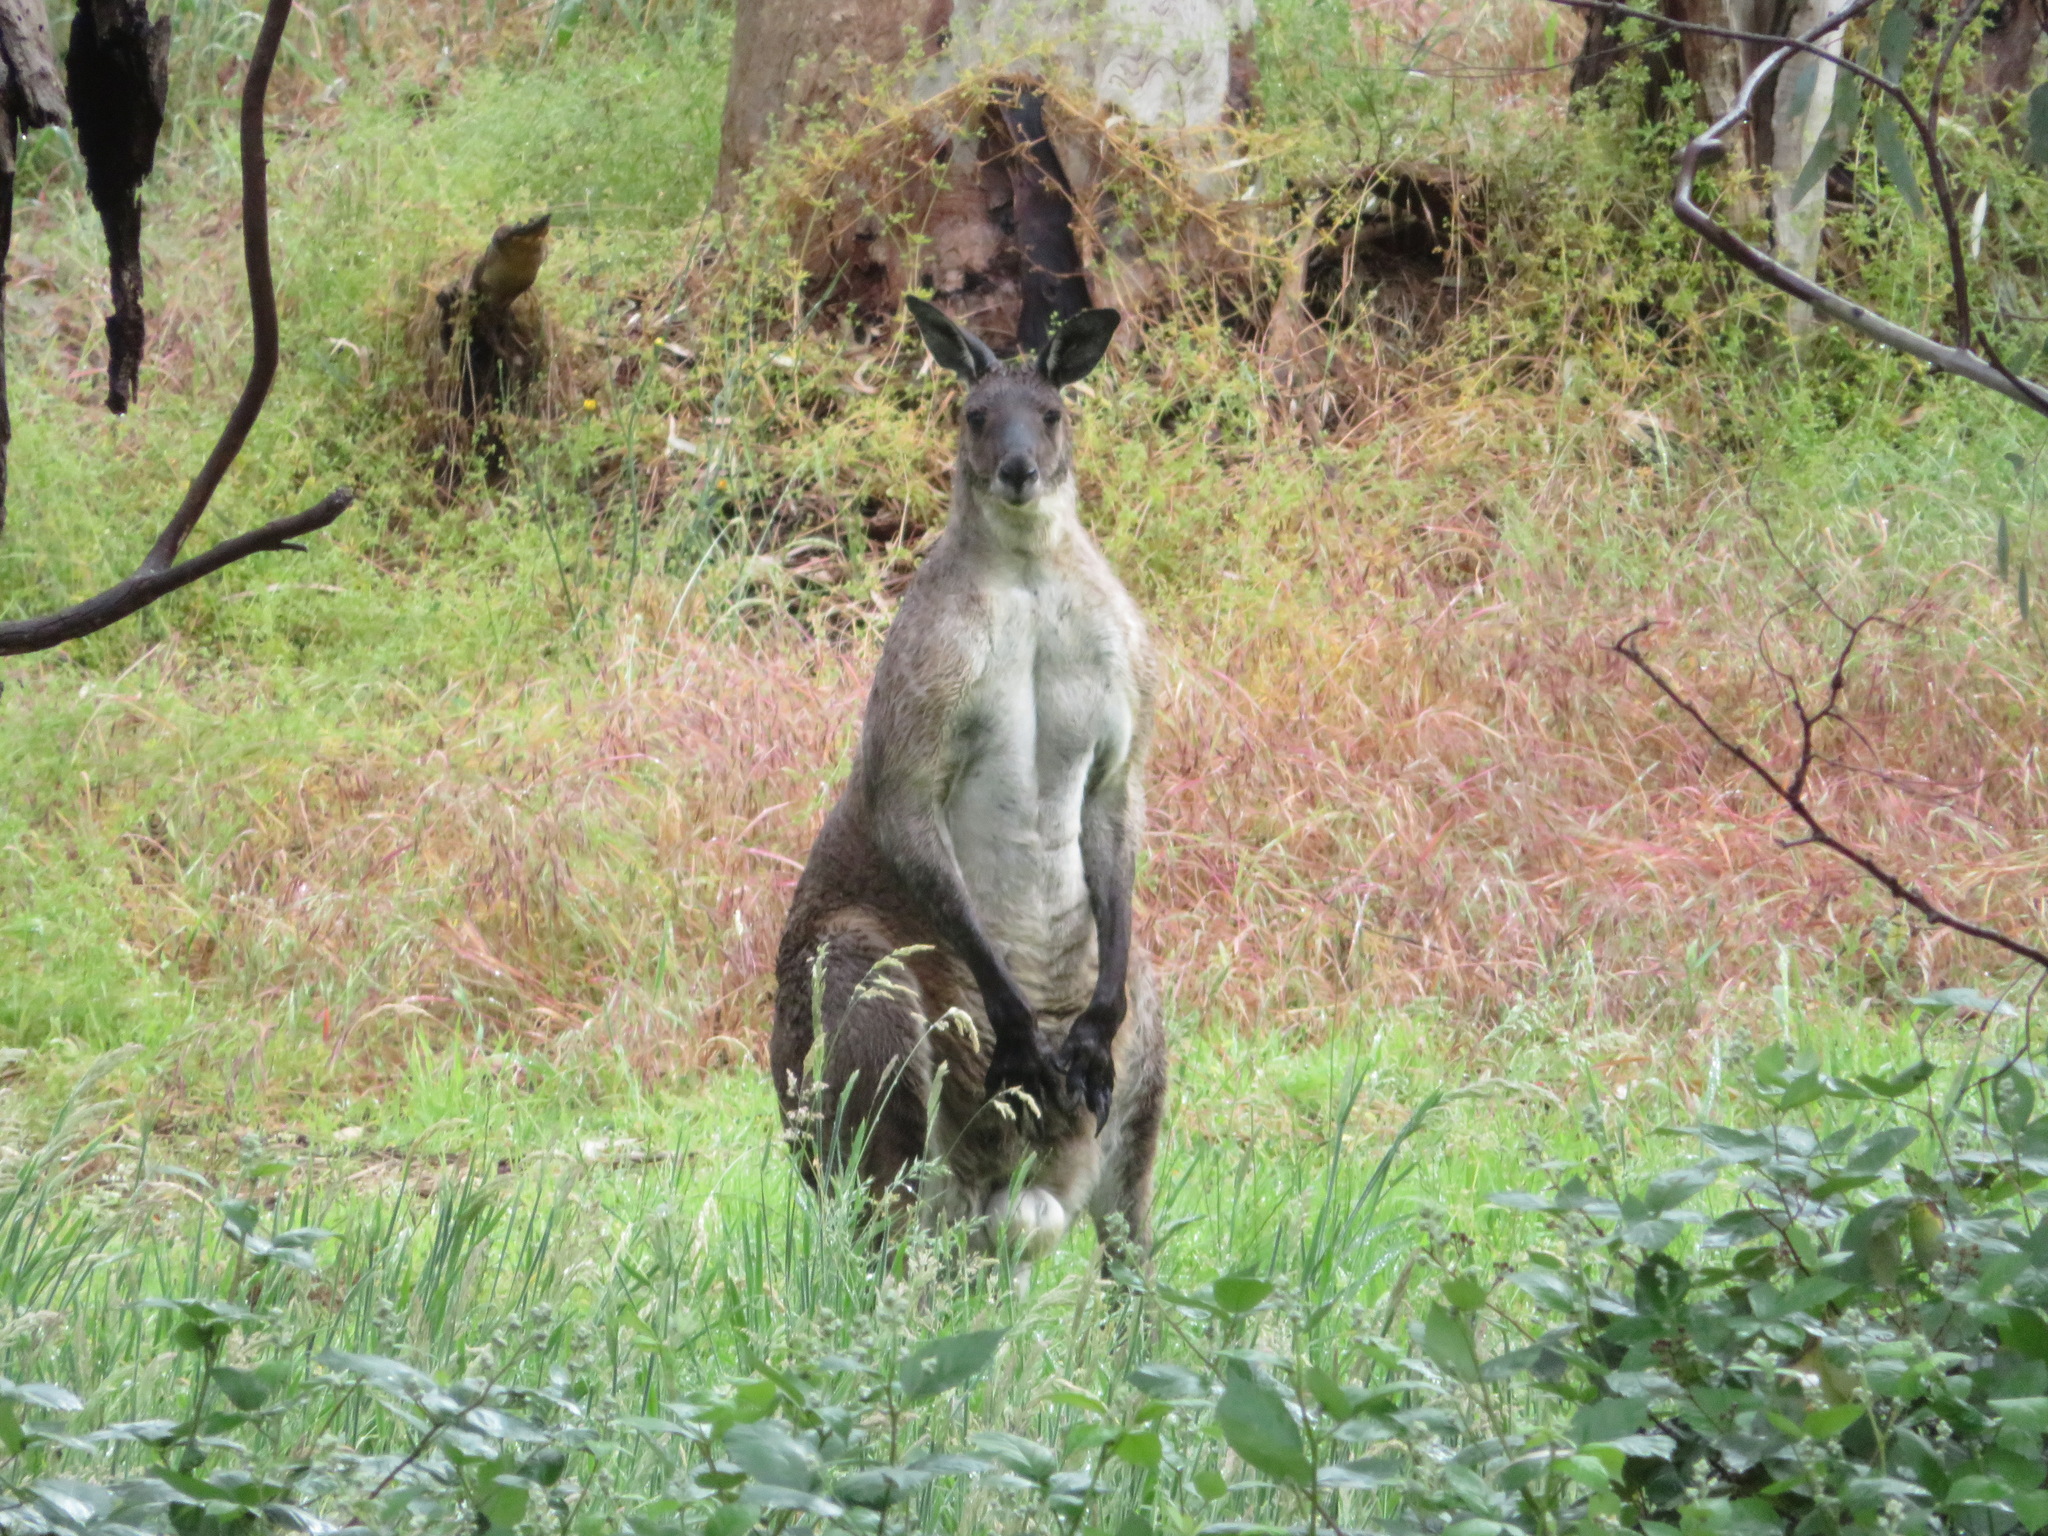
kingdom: Animalia
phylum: Chordata
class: Mammalia
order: Diprotodontia
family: Macropodidae
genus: Macropus
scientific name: Macropus fuliginosus
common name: Western grey kangaroo
